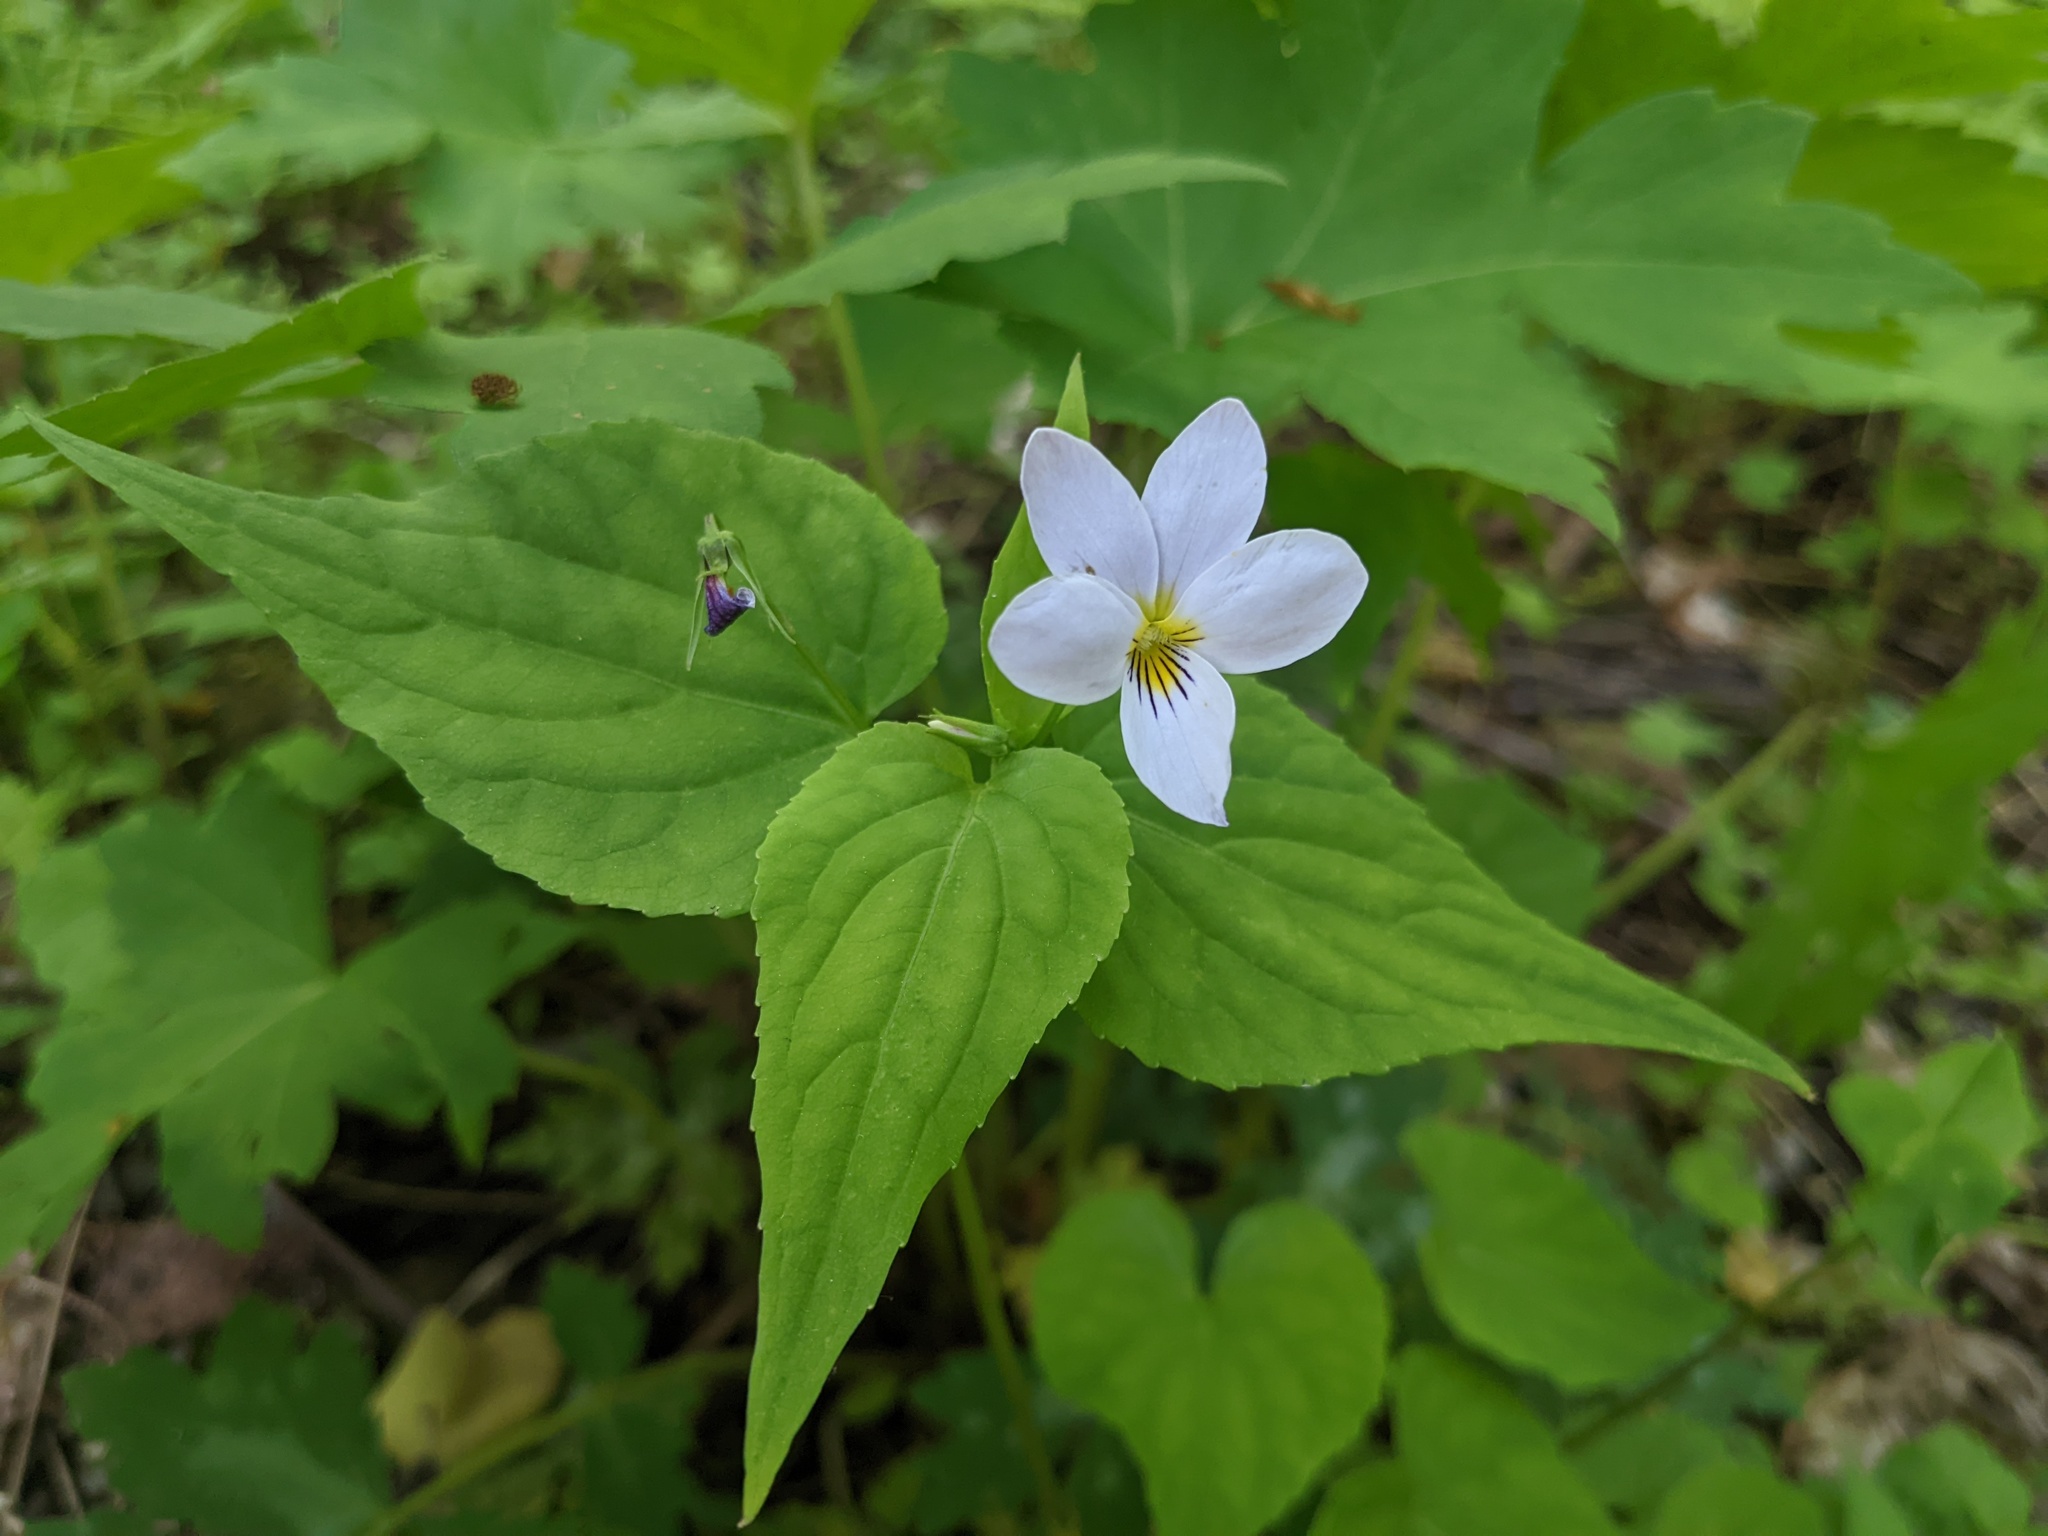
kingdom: Plantae
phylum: Tracheophyta
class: Magnoliopsida
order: Malpighiales
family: Violaceae
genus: Viola
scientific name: Viola canadensis
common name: Canada violet
